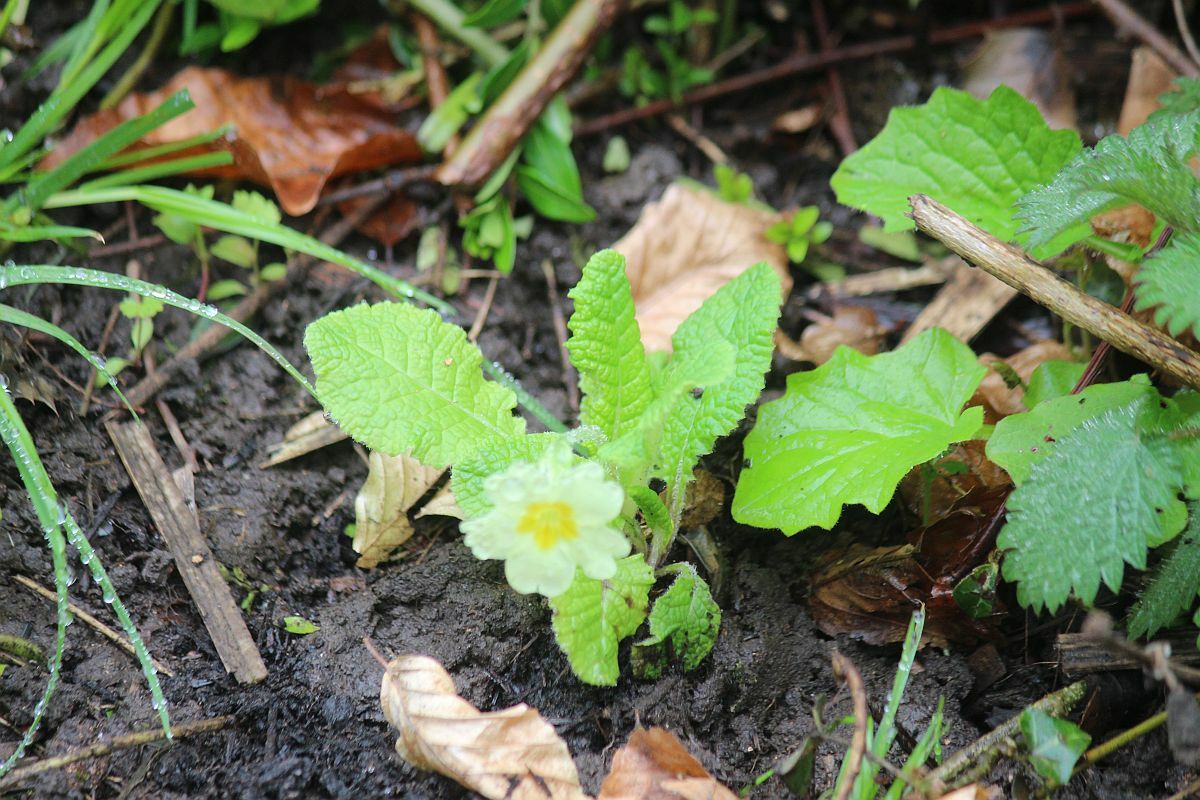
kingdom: Plantae
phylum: Tracheophyta
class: Magnoliopsida
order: Ericales
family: Primulaceae
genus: Primula
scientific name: Primula vulgaris
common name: Primrose
